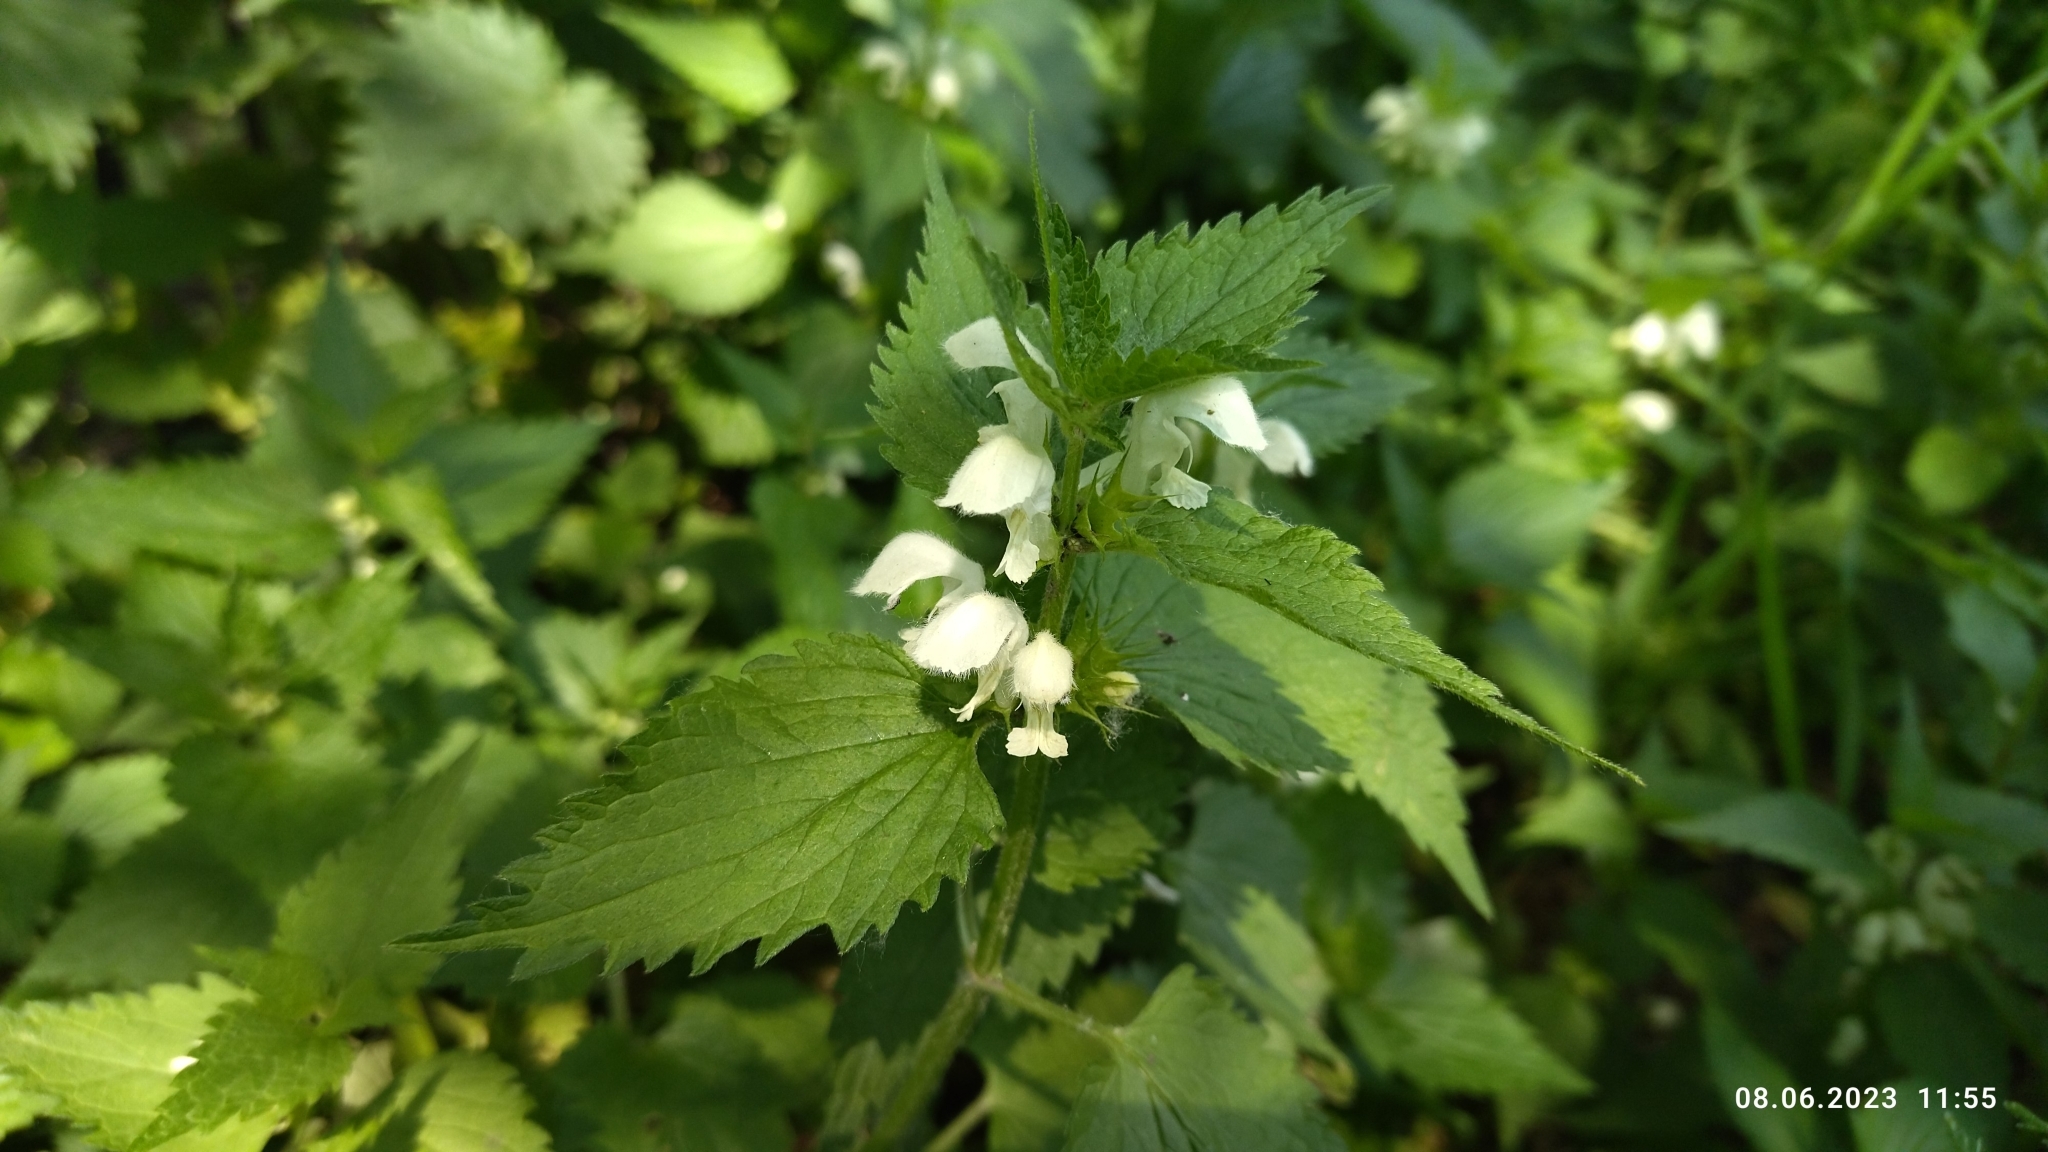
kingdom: Plantae
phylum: Tracheophyta
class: Magnoliopsida
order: Lamiales
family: Lamiaceae
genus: Lamium
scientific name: Lamium album
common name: White dead-nettle
